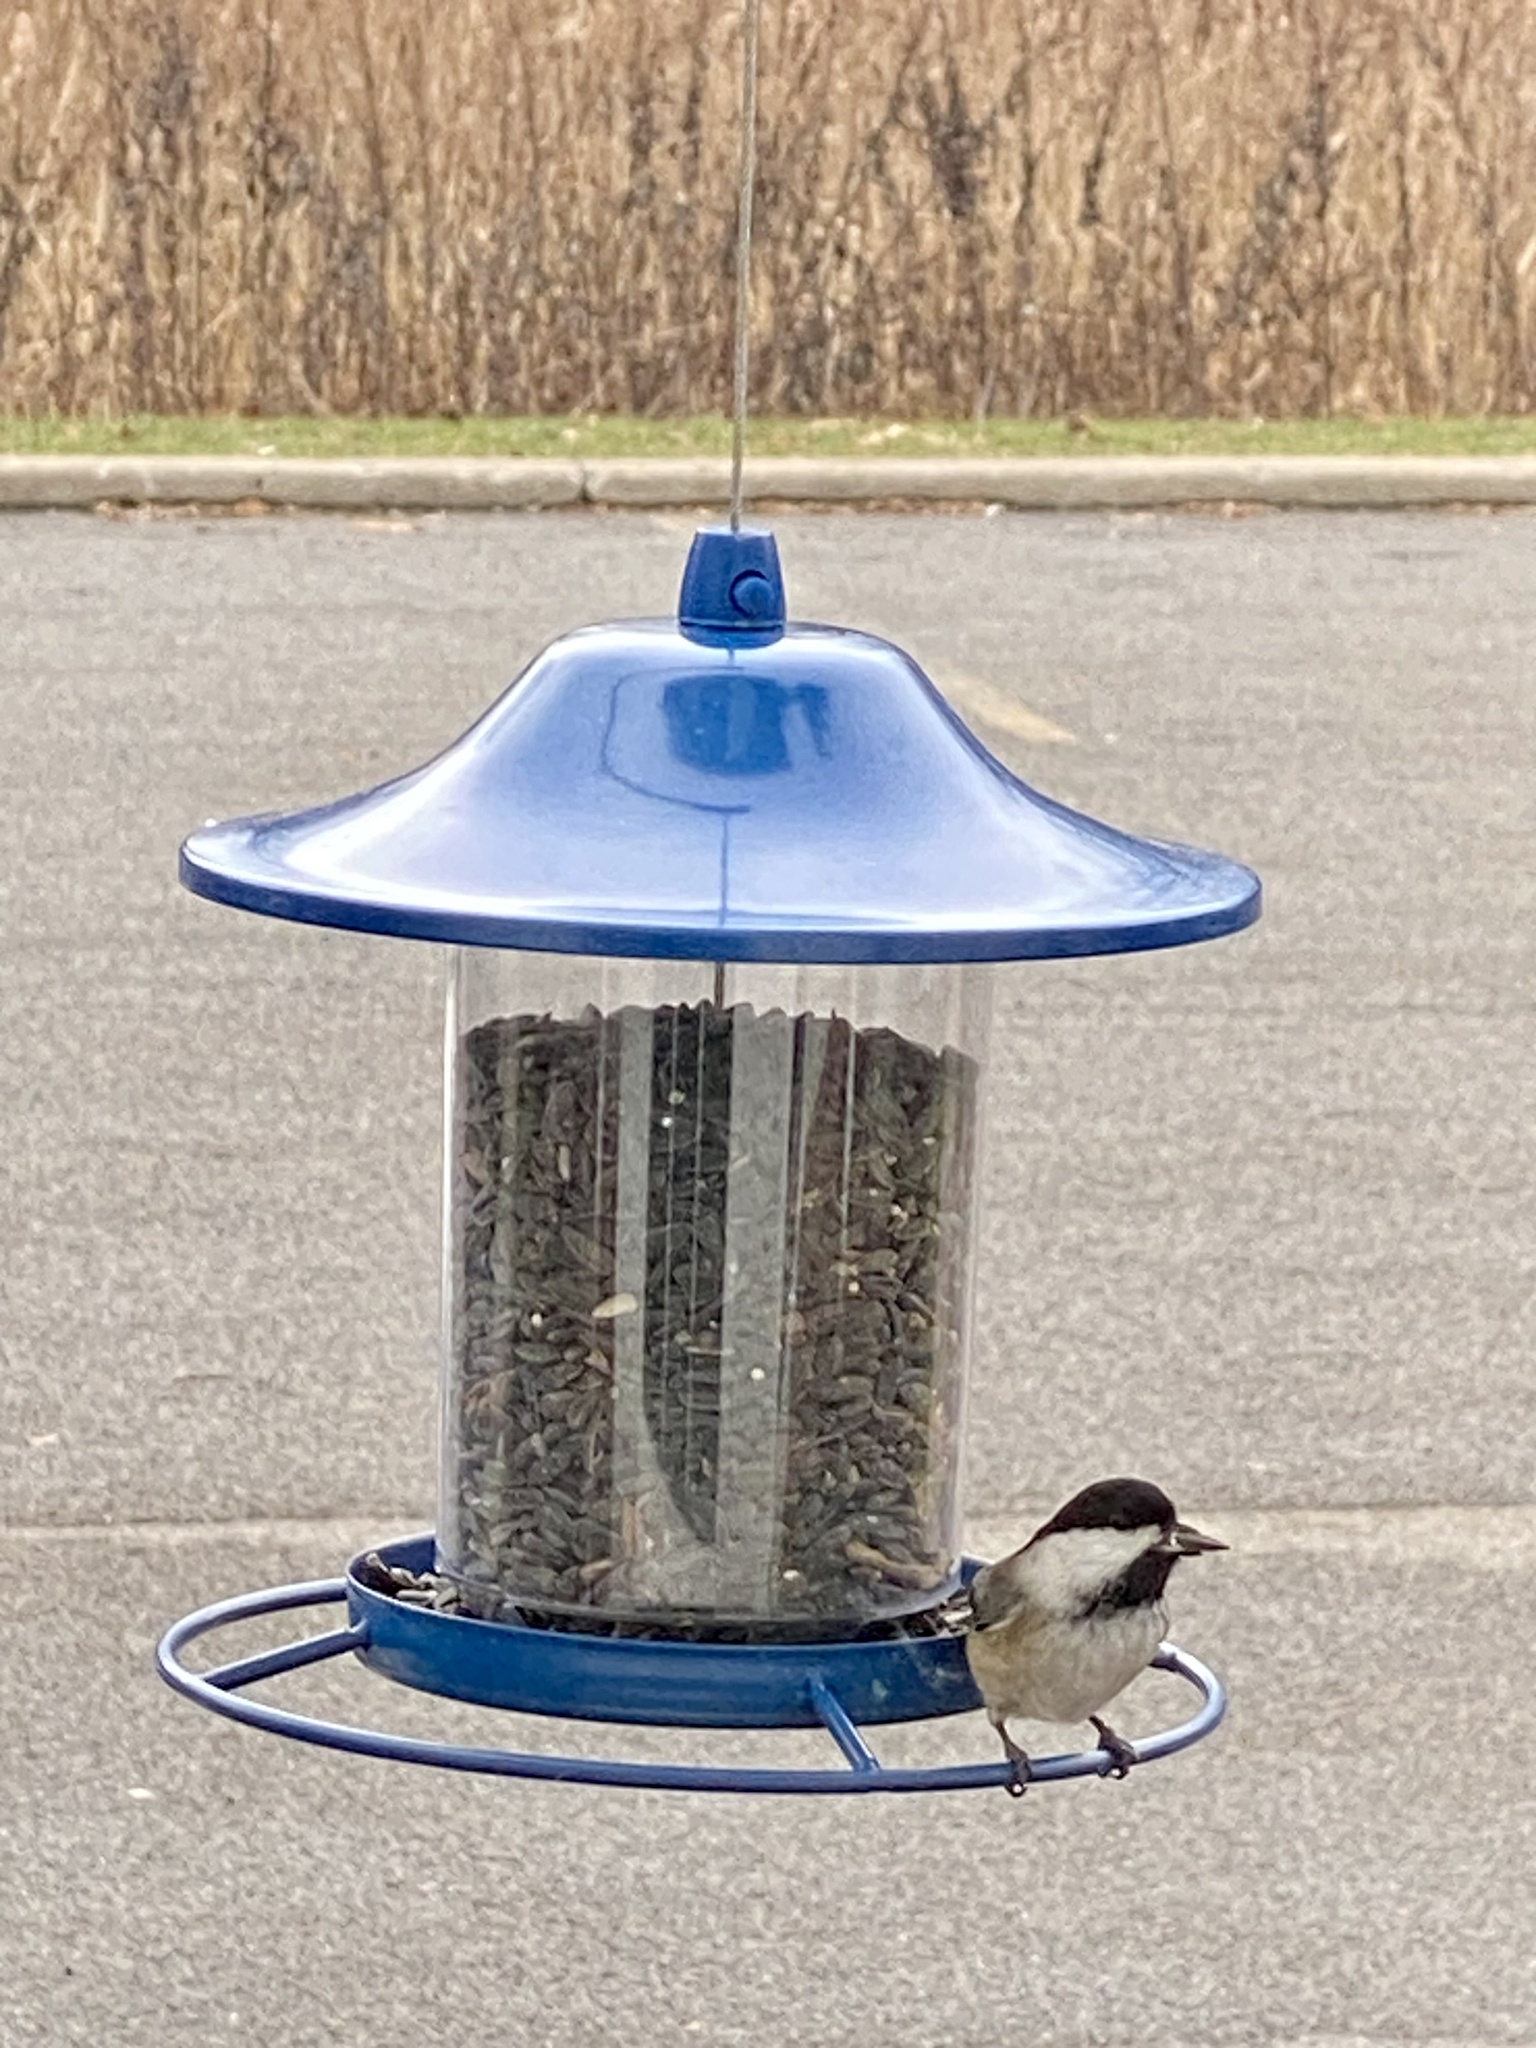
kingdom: Animalia
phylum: Chordata
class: Aves
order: Passeriformes
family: Paridae
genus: Poecile
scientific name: Poecile atricapillus
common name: Black-capped chickadee
